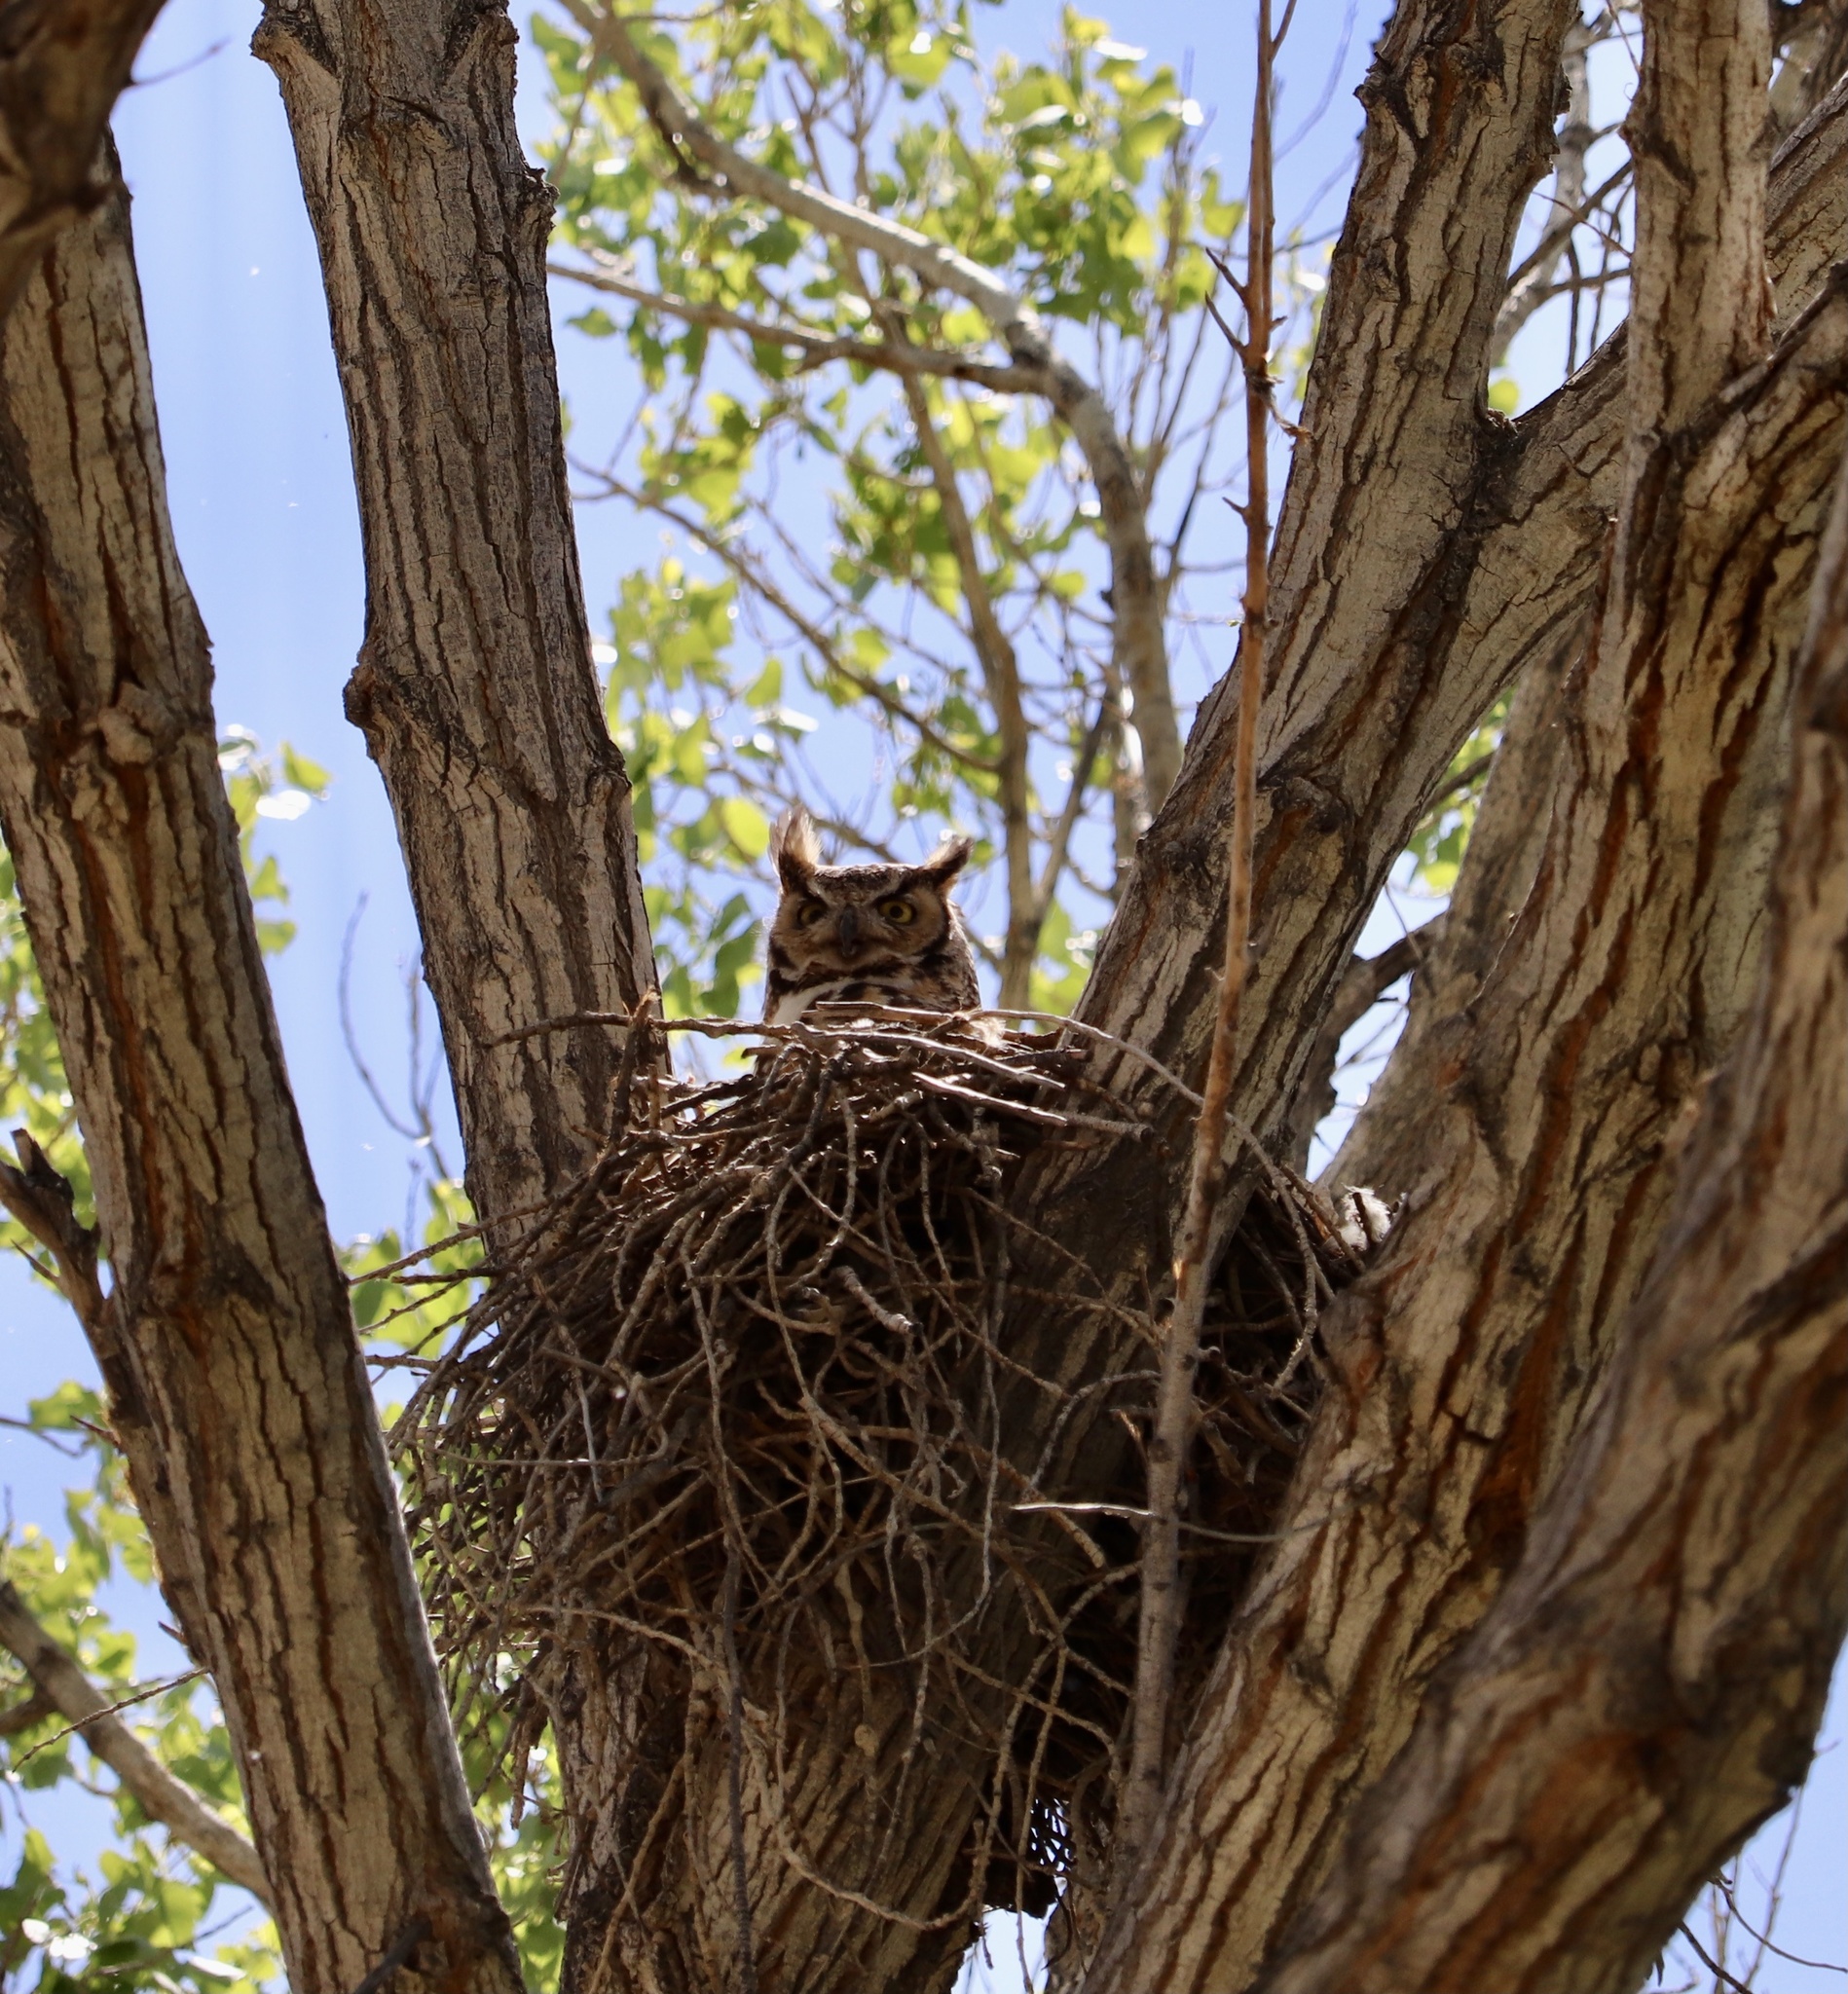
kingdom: Animalia
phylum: Chordata
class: Aves
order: Strigiformes
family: Strigidae
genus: Bubo
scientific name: Bubo virginianus
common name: Great horned owl
